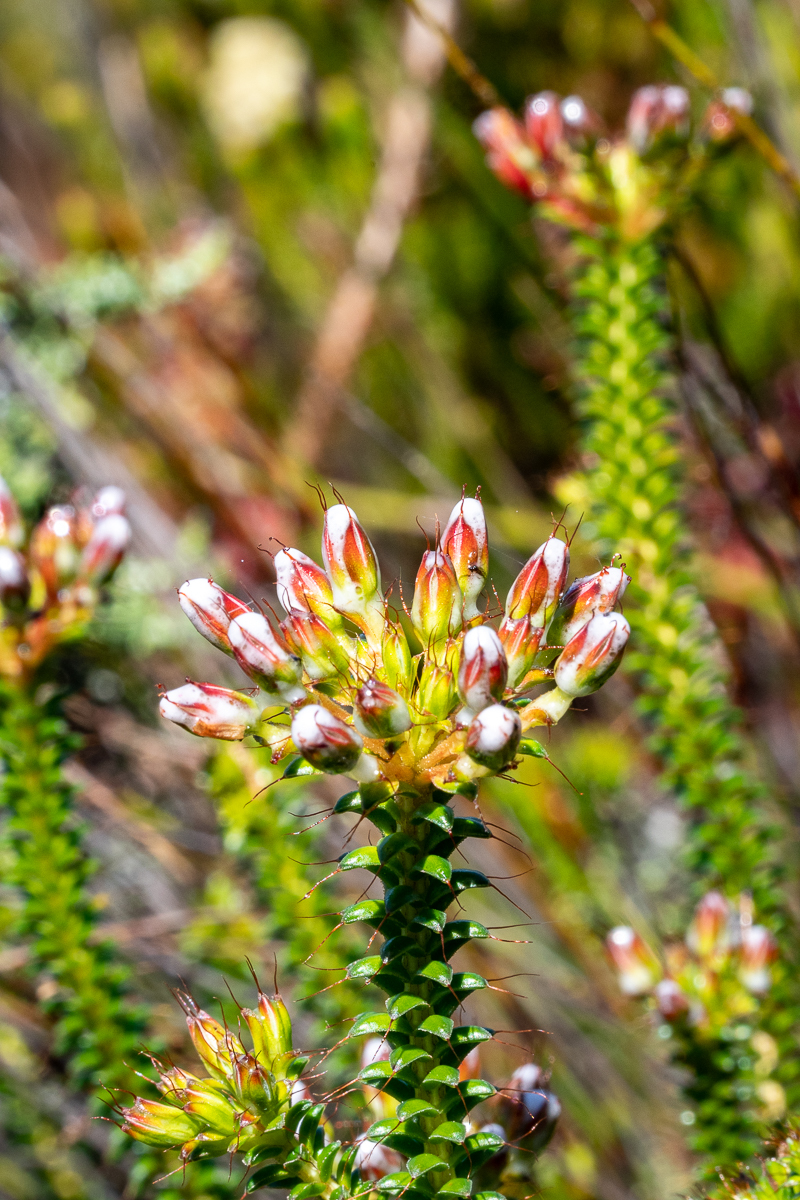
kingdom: Plantae
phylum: Tracheophyta
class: Magnoliopsida
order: Ericales
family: Ericaceae
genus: Erica
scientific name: Erica retorta
